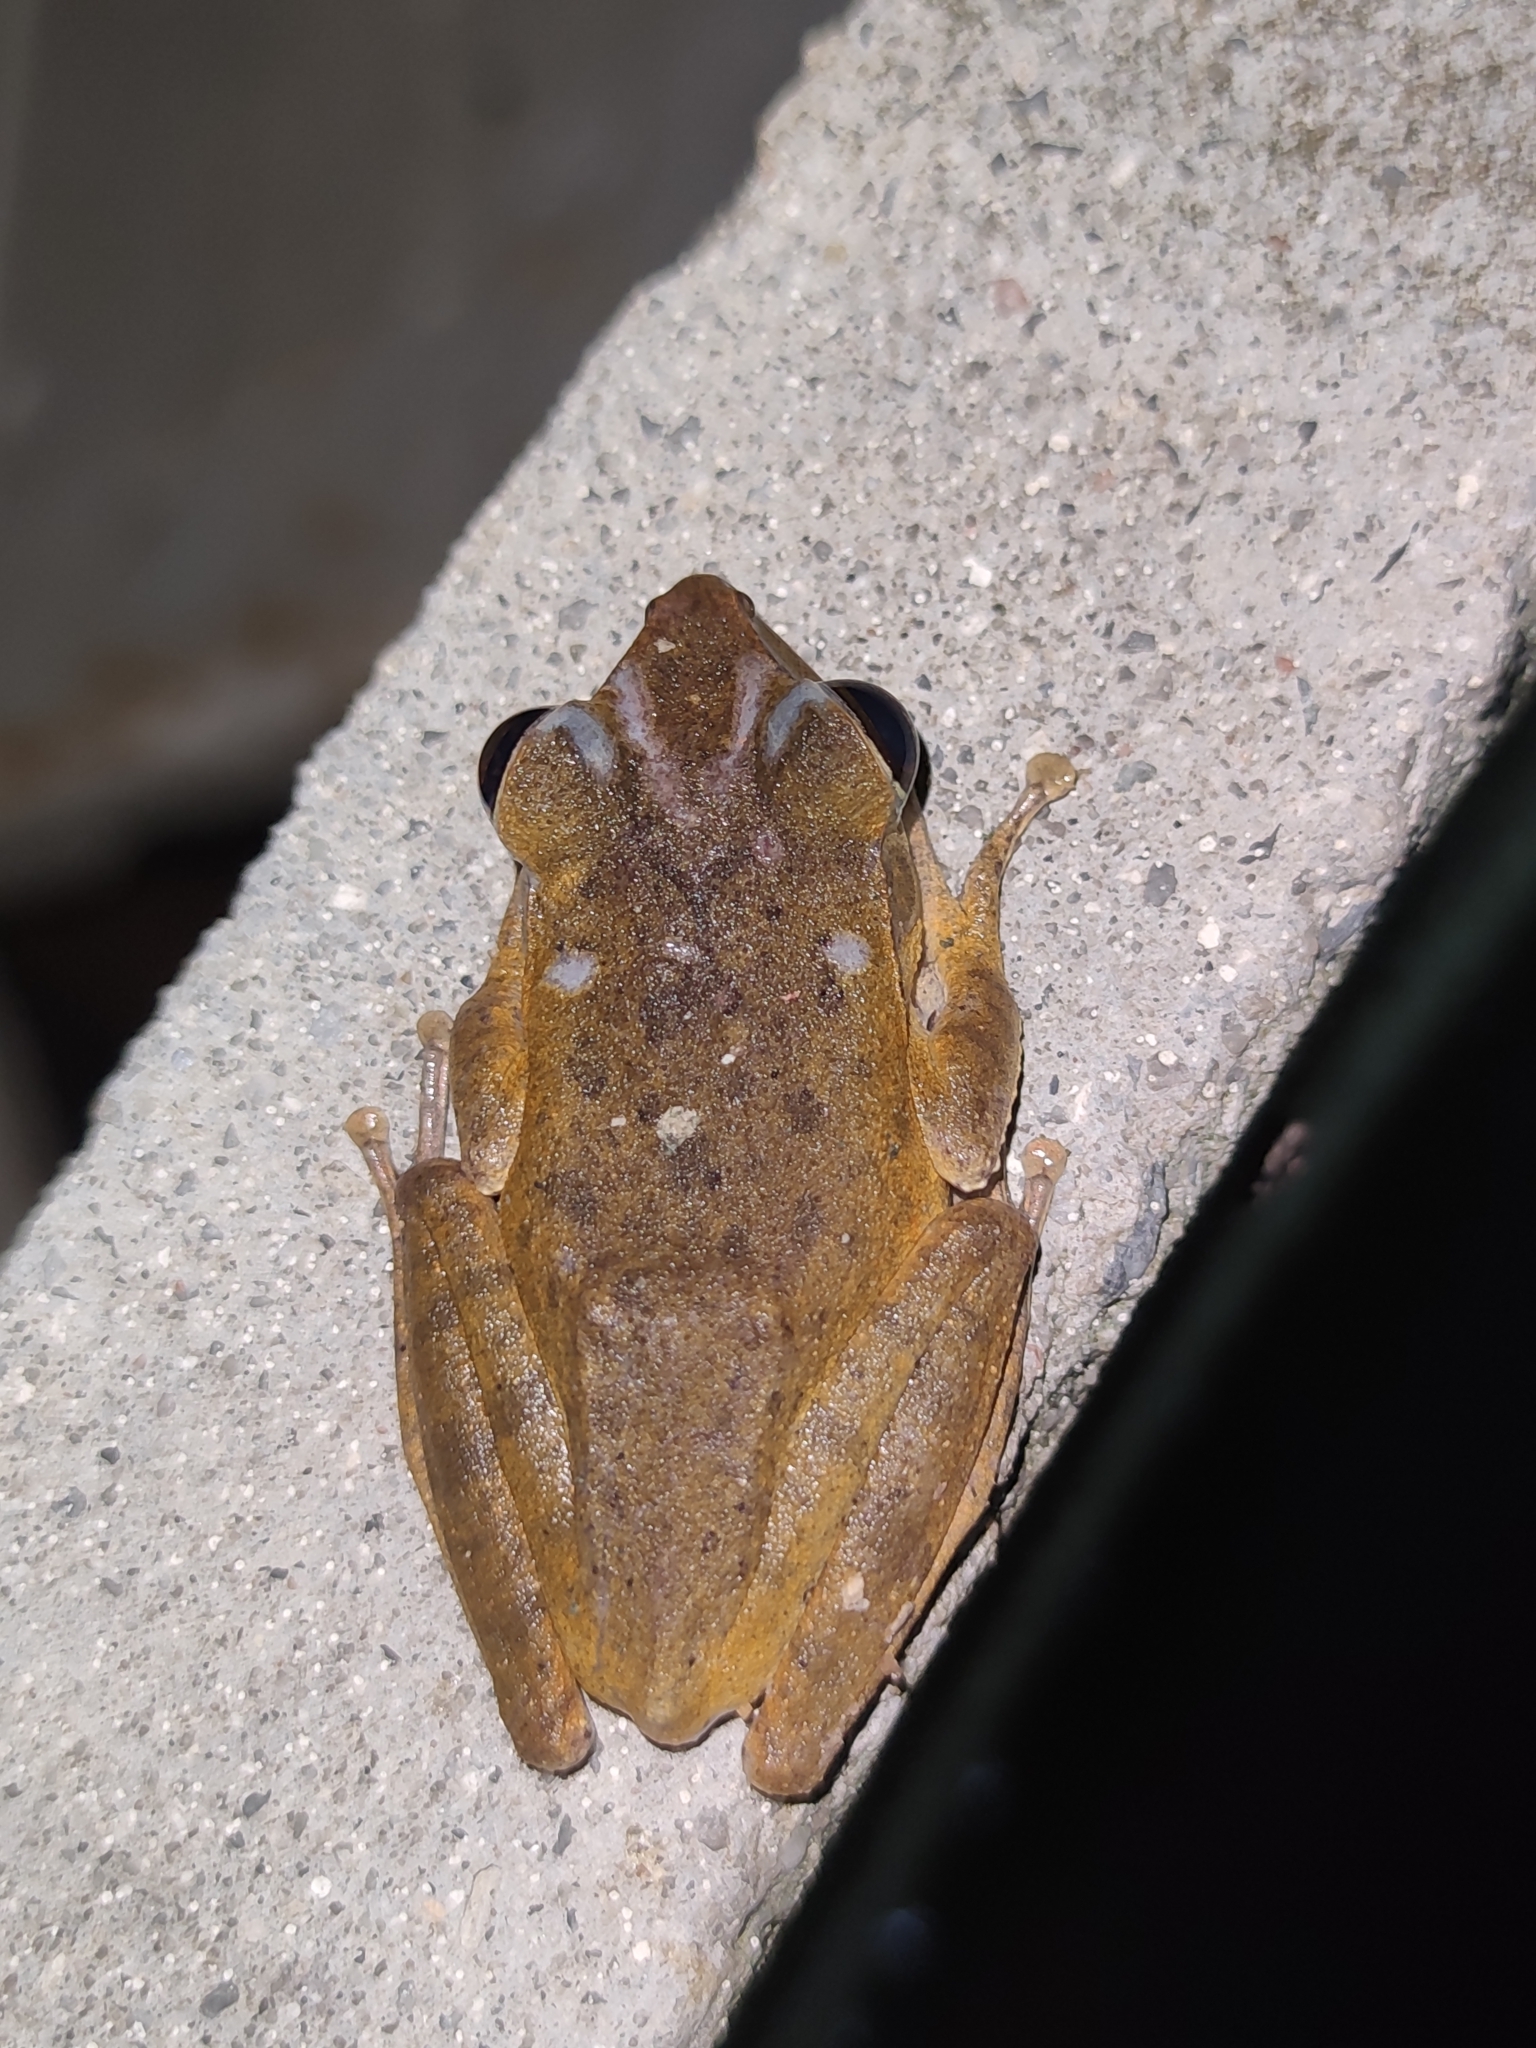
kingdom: Animalia
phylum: Chordata
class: Amphibia
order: Anura
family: Rhacophoridae
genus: Polypedates
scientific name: Polypedates megacephalus
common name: Hong kong whipping frog
